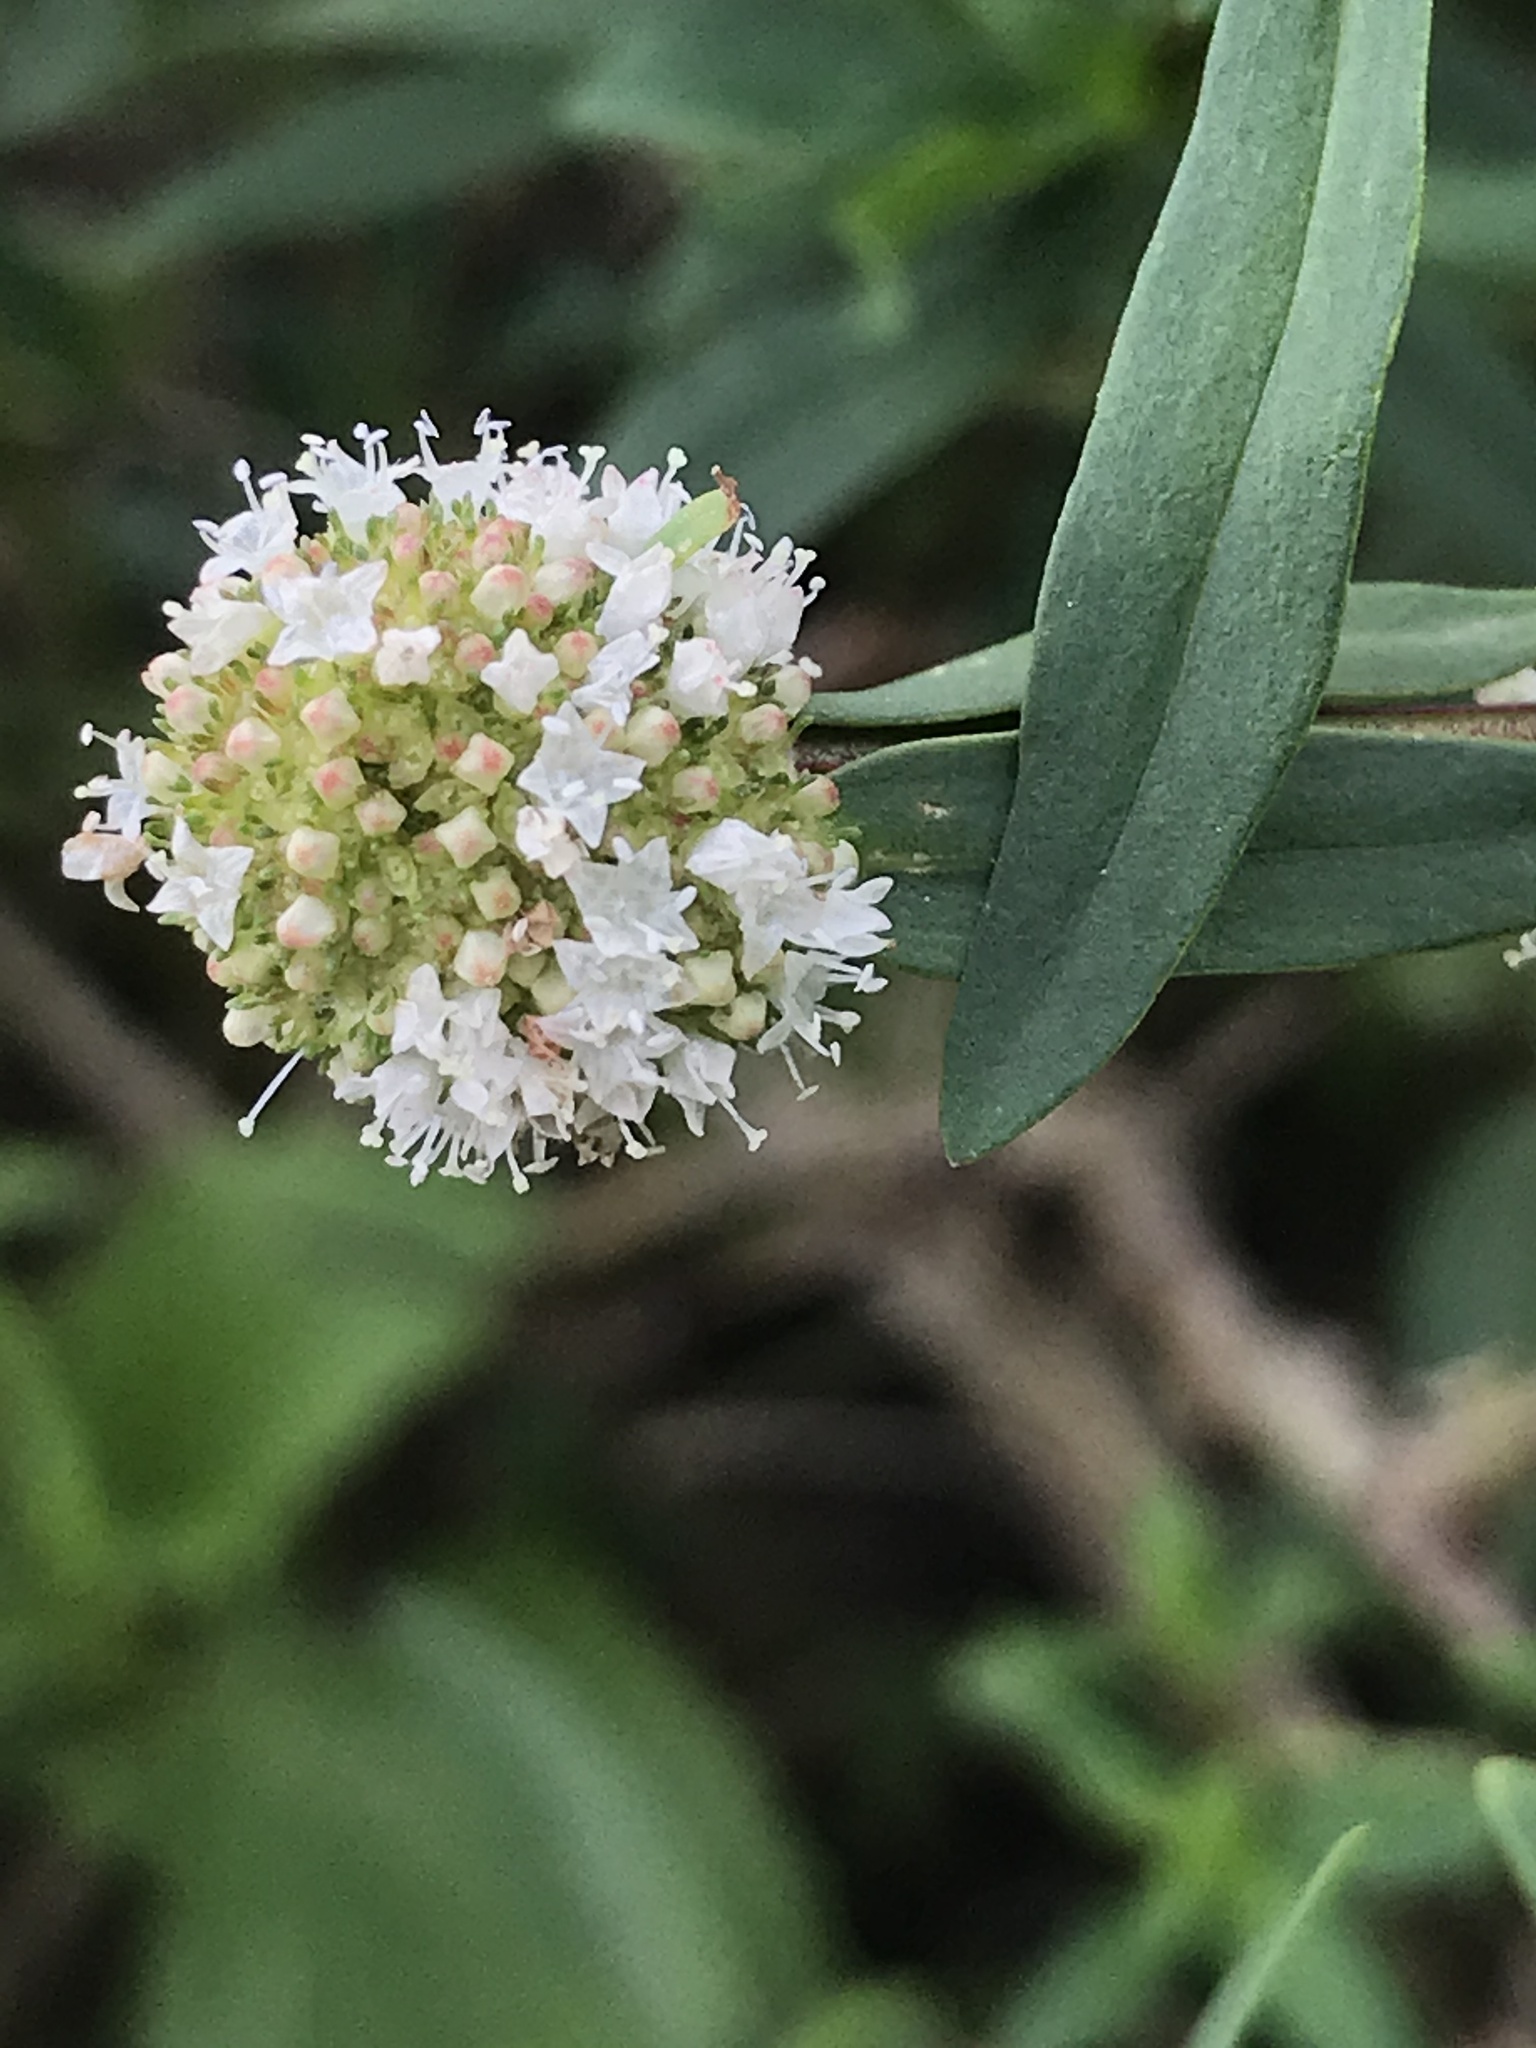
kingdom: Plantae
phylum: Tracheophyta
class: Magnoliopsida
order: Gentianales
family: Rubiaceae
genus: Spermacoce
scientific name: Spermacoce verticillata
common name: Shrubby false buttonweed
